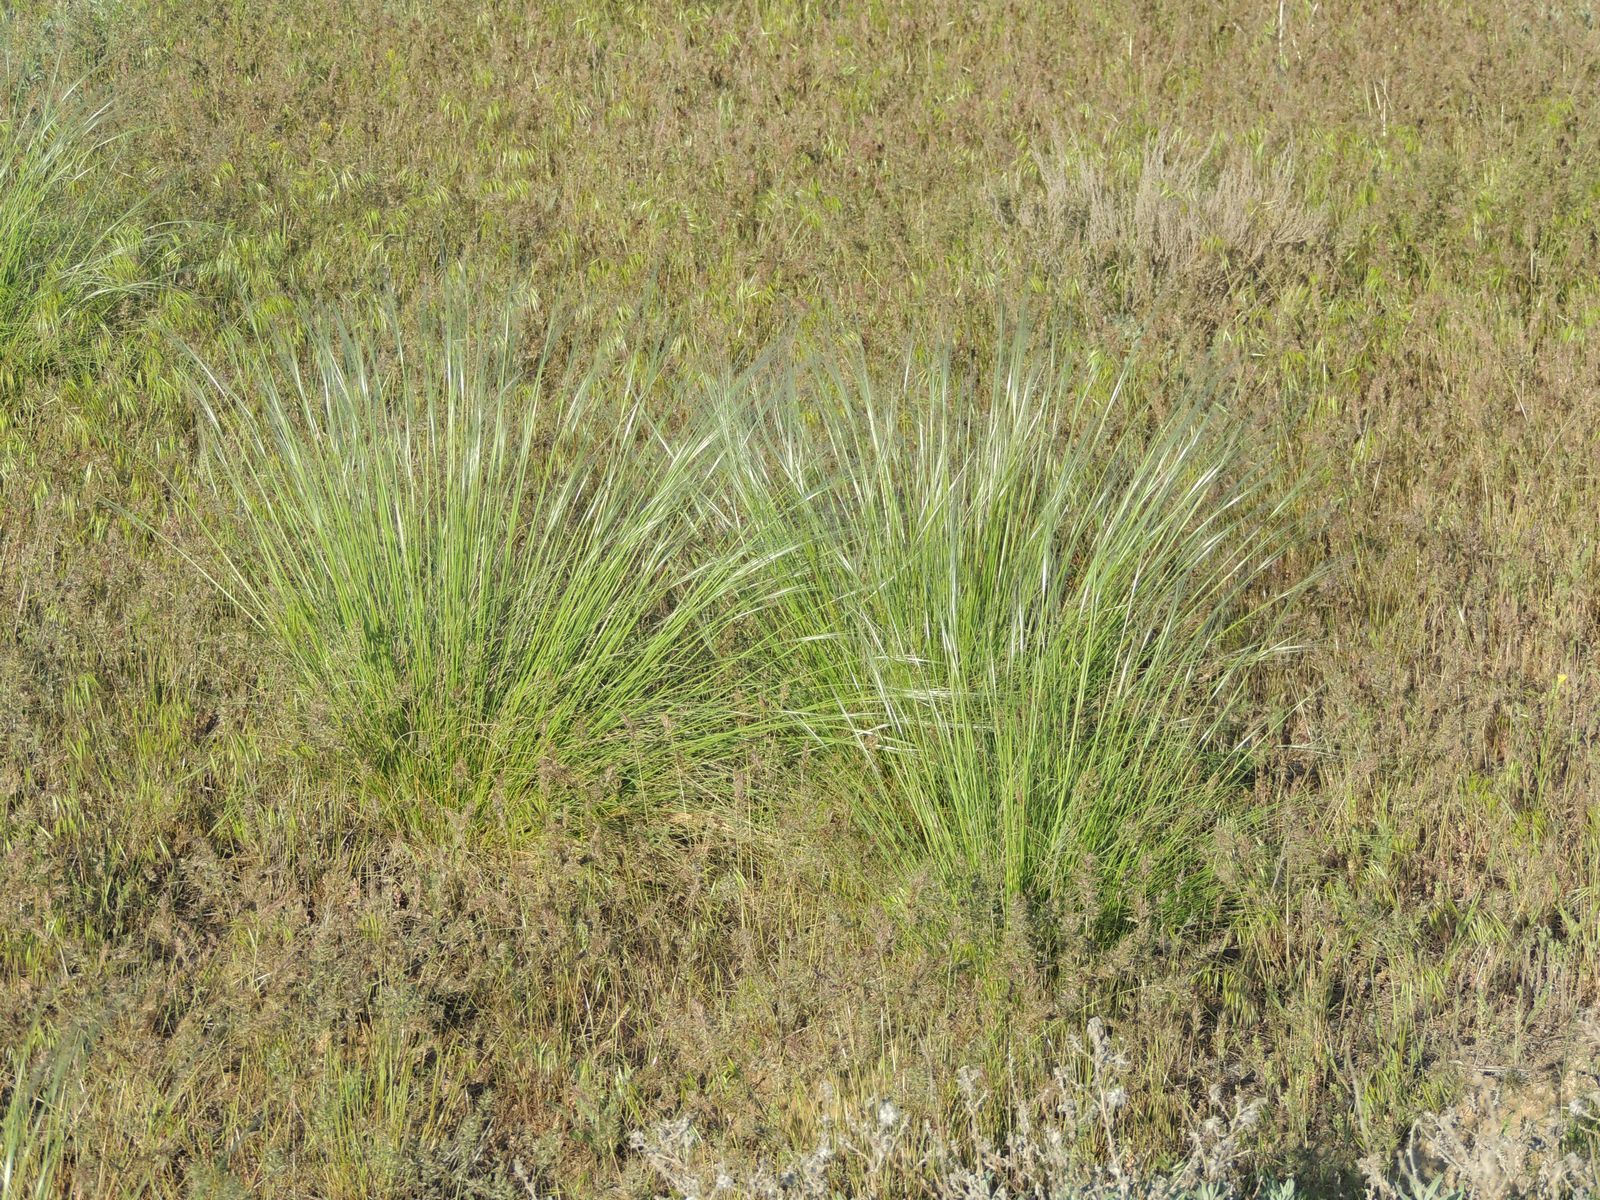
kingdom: Plantae
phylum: Tracheophyta
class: Liliopsida
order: Poales
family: Poaceae
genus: Stipa
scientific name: Stipa lessingiana
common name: Needle grass
